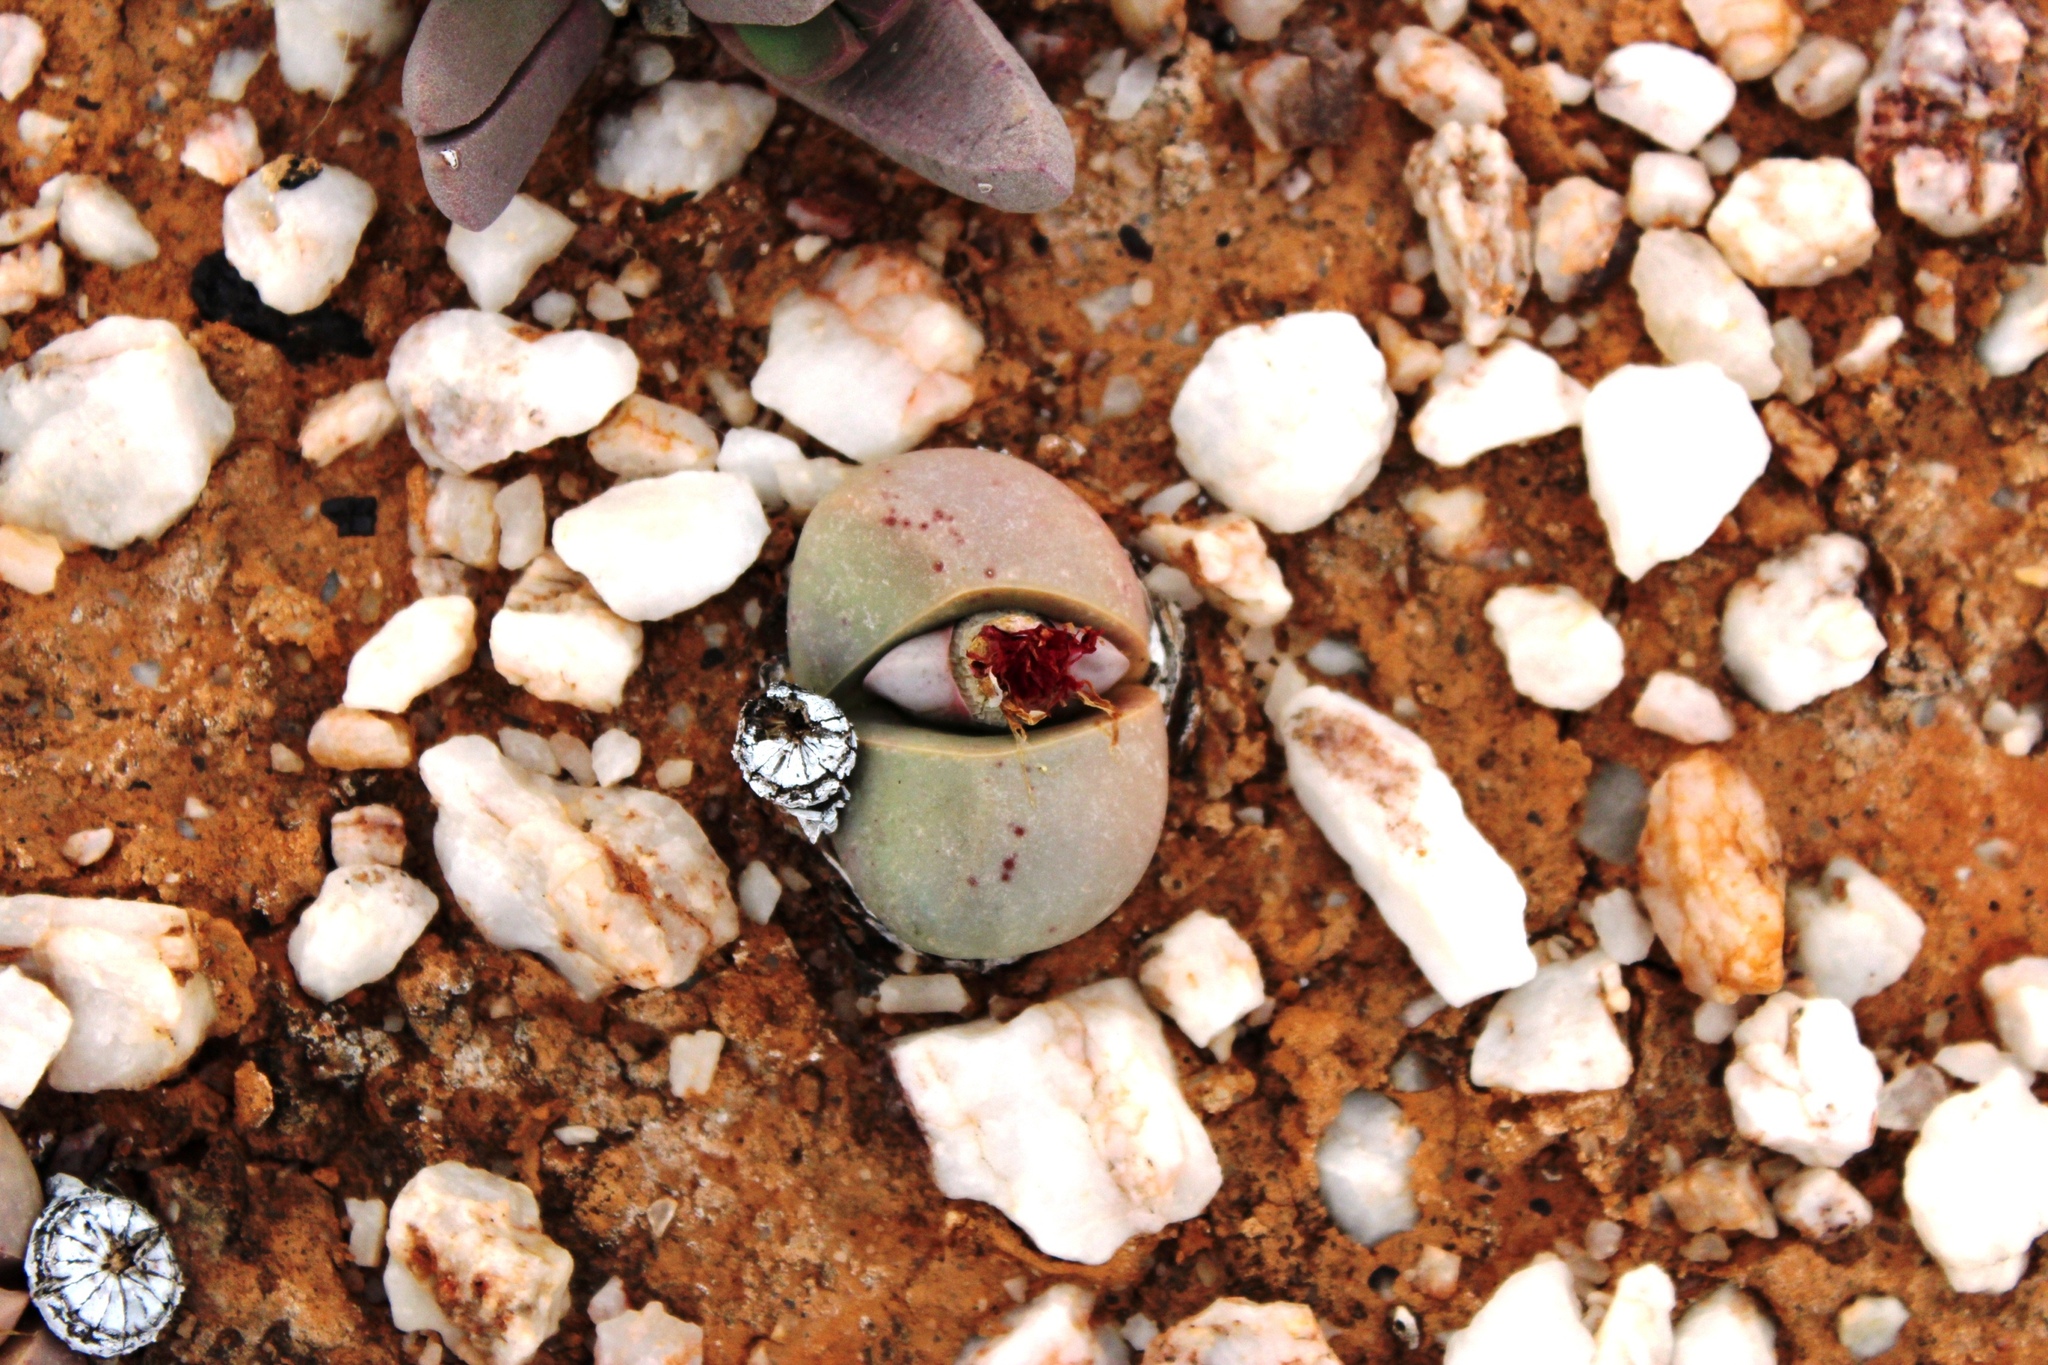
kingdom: Plantae
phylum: Tracheophyta
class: Magnoliopsida
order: Caryophyllales
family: Aizoaceae
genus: Argyroderma
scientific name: Argyroderma delaetii
